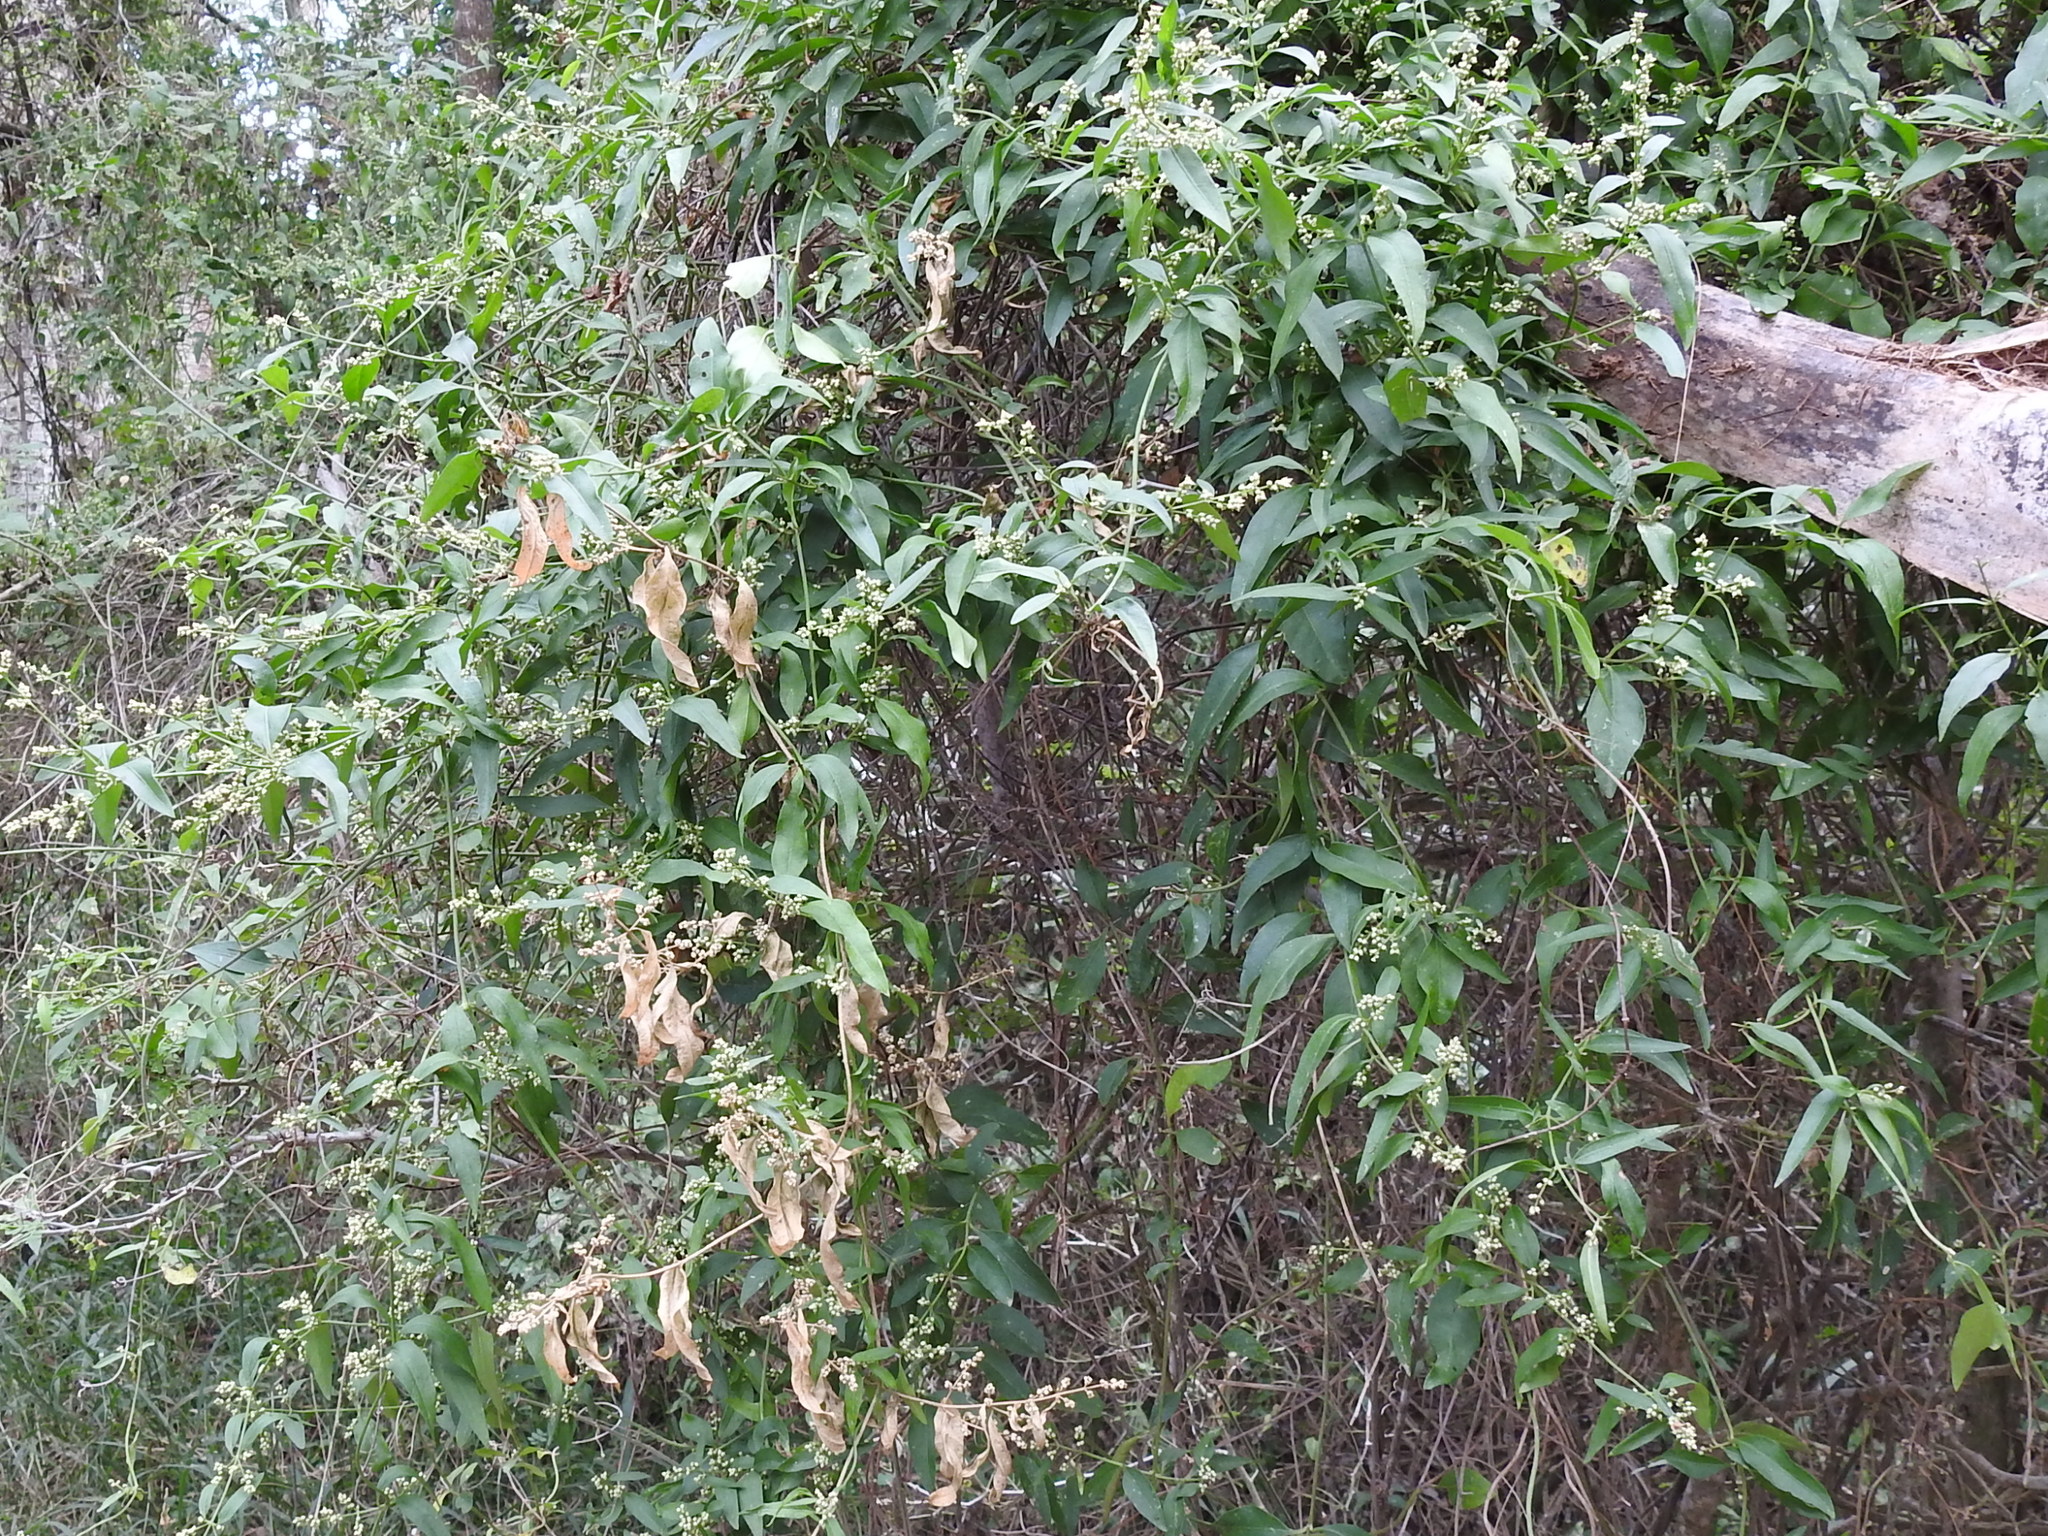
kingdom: Plantae
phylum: Tracheophyta
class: Magnoliopsida
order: Caryophyllales
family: Amaranthaceae
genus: Iresine
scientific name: Iresine palmeri
